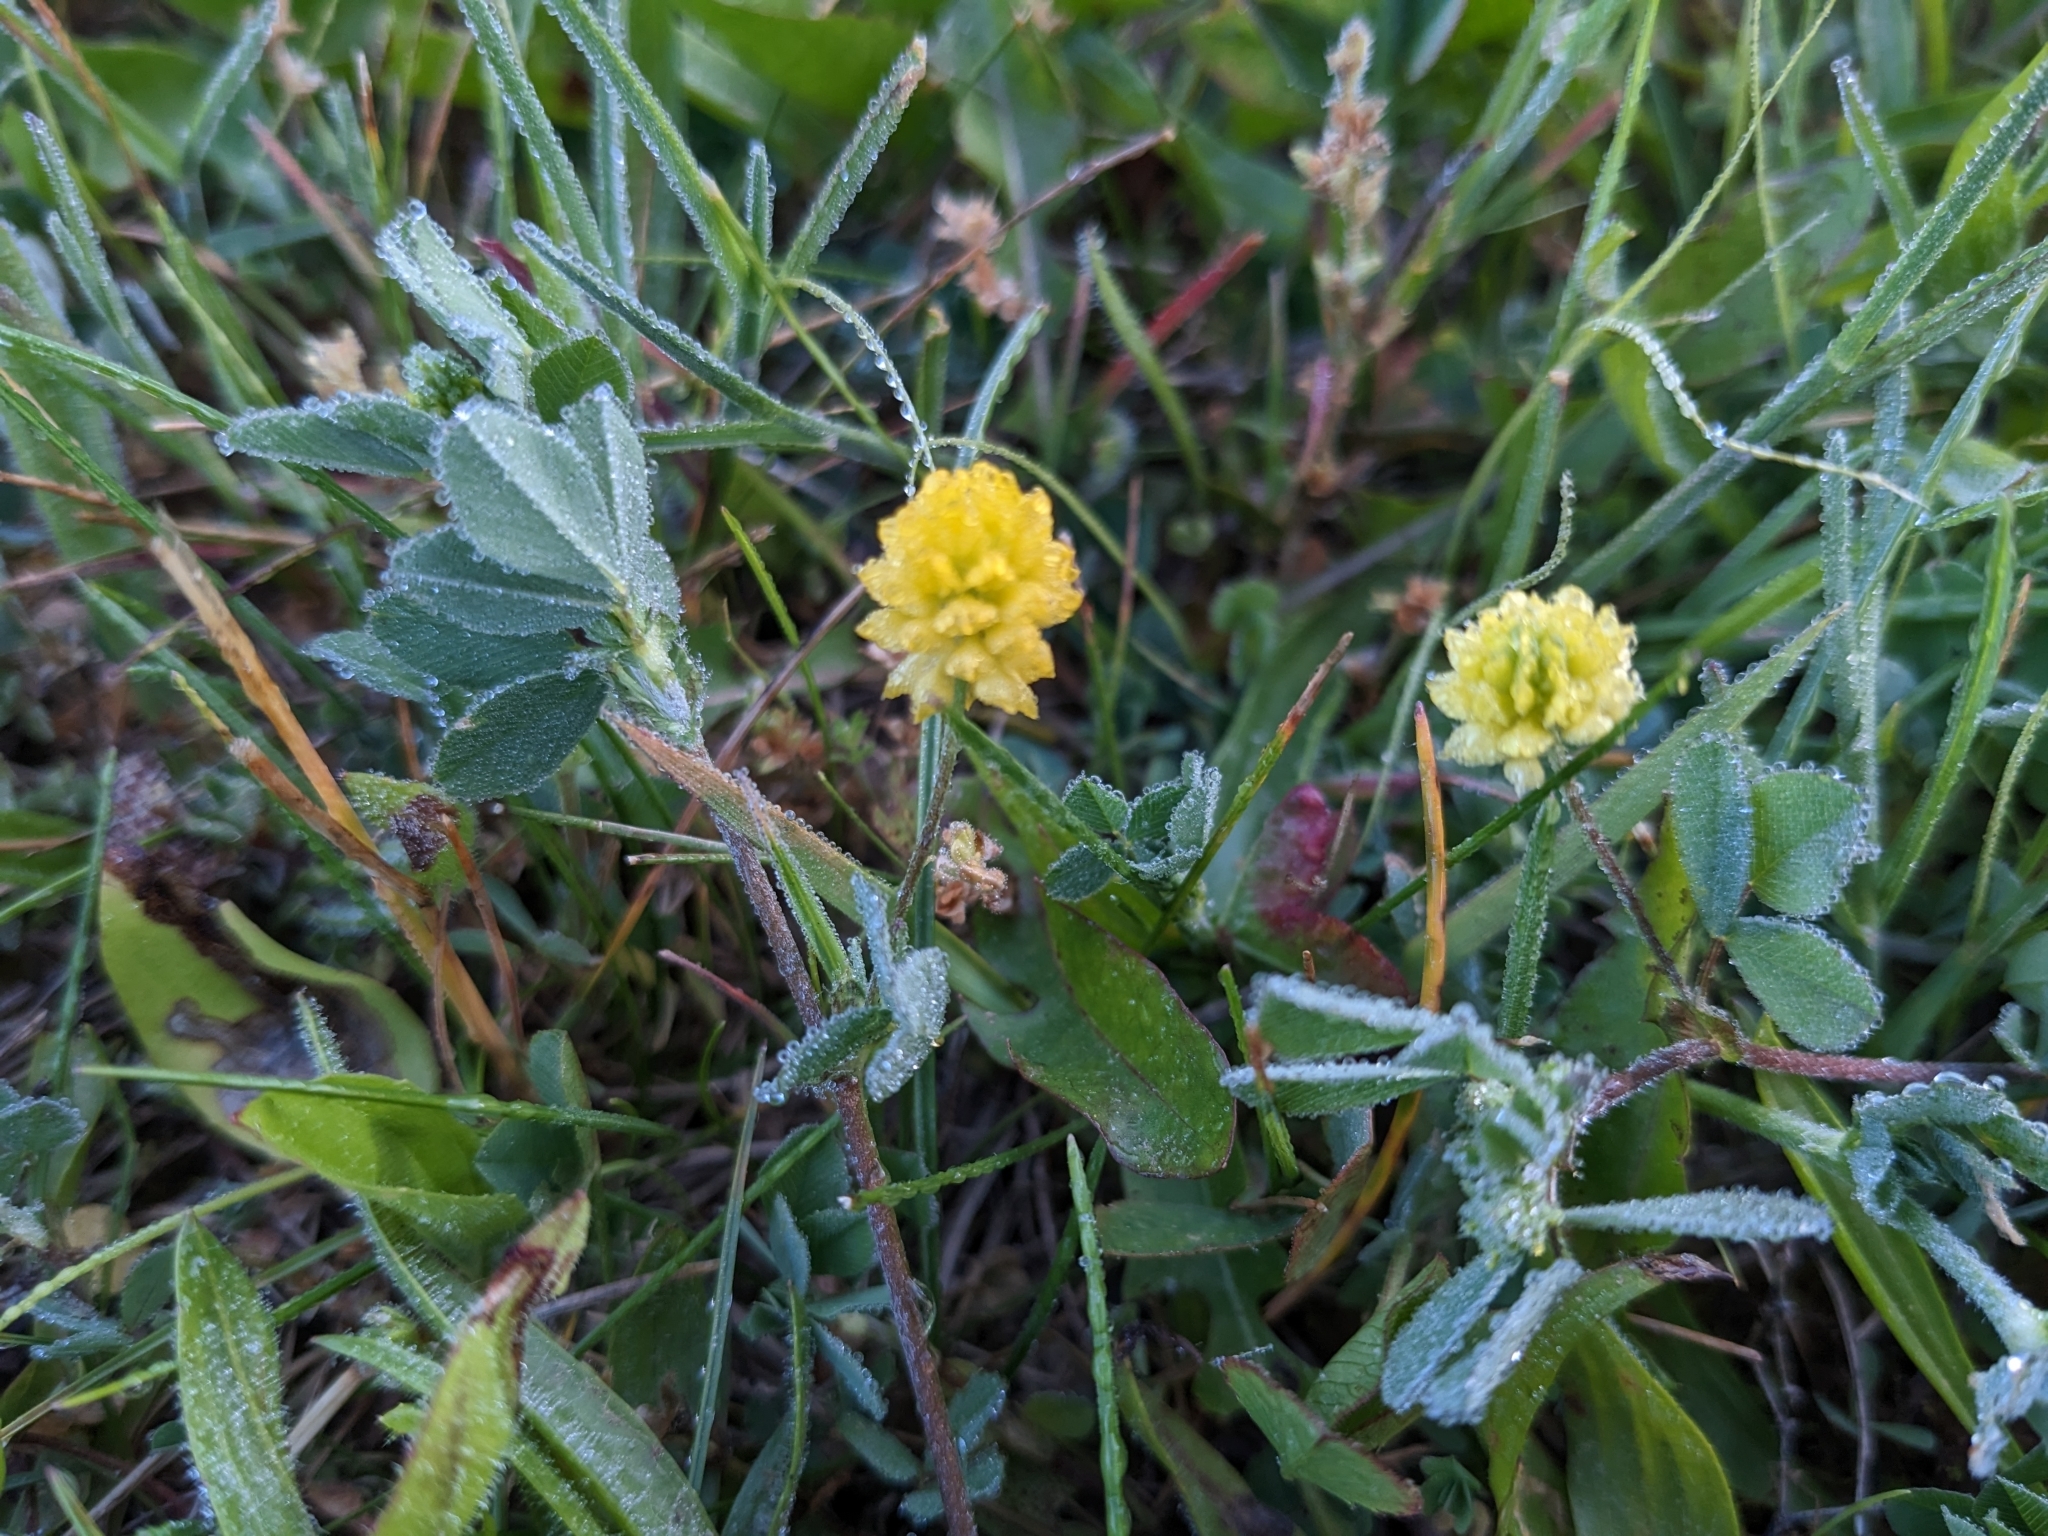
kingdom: Plantae
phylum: Tracheophyta
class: Magnoliopsida
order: Fabales
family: Fabaceae
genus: Trifolium
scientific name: Trifolium campestre
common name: Field clover
